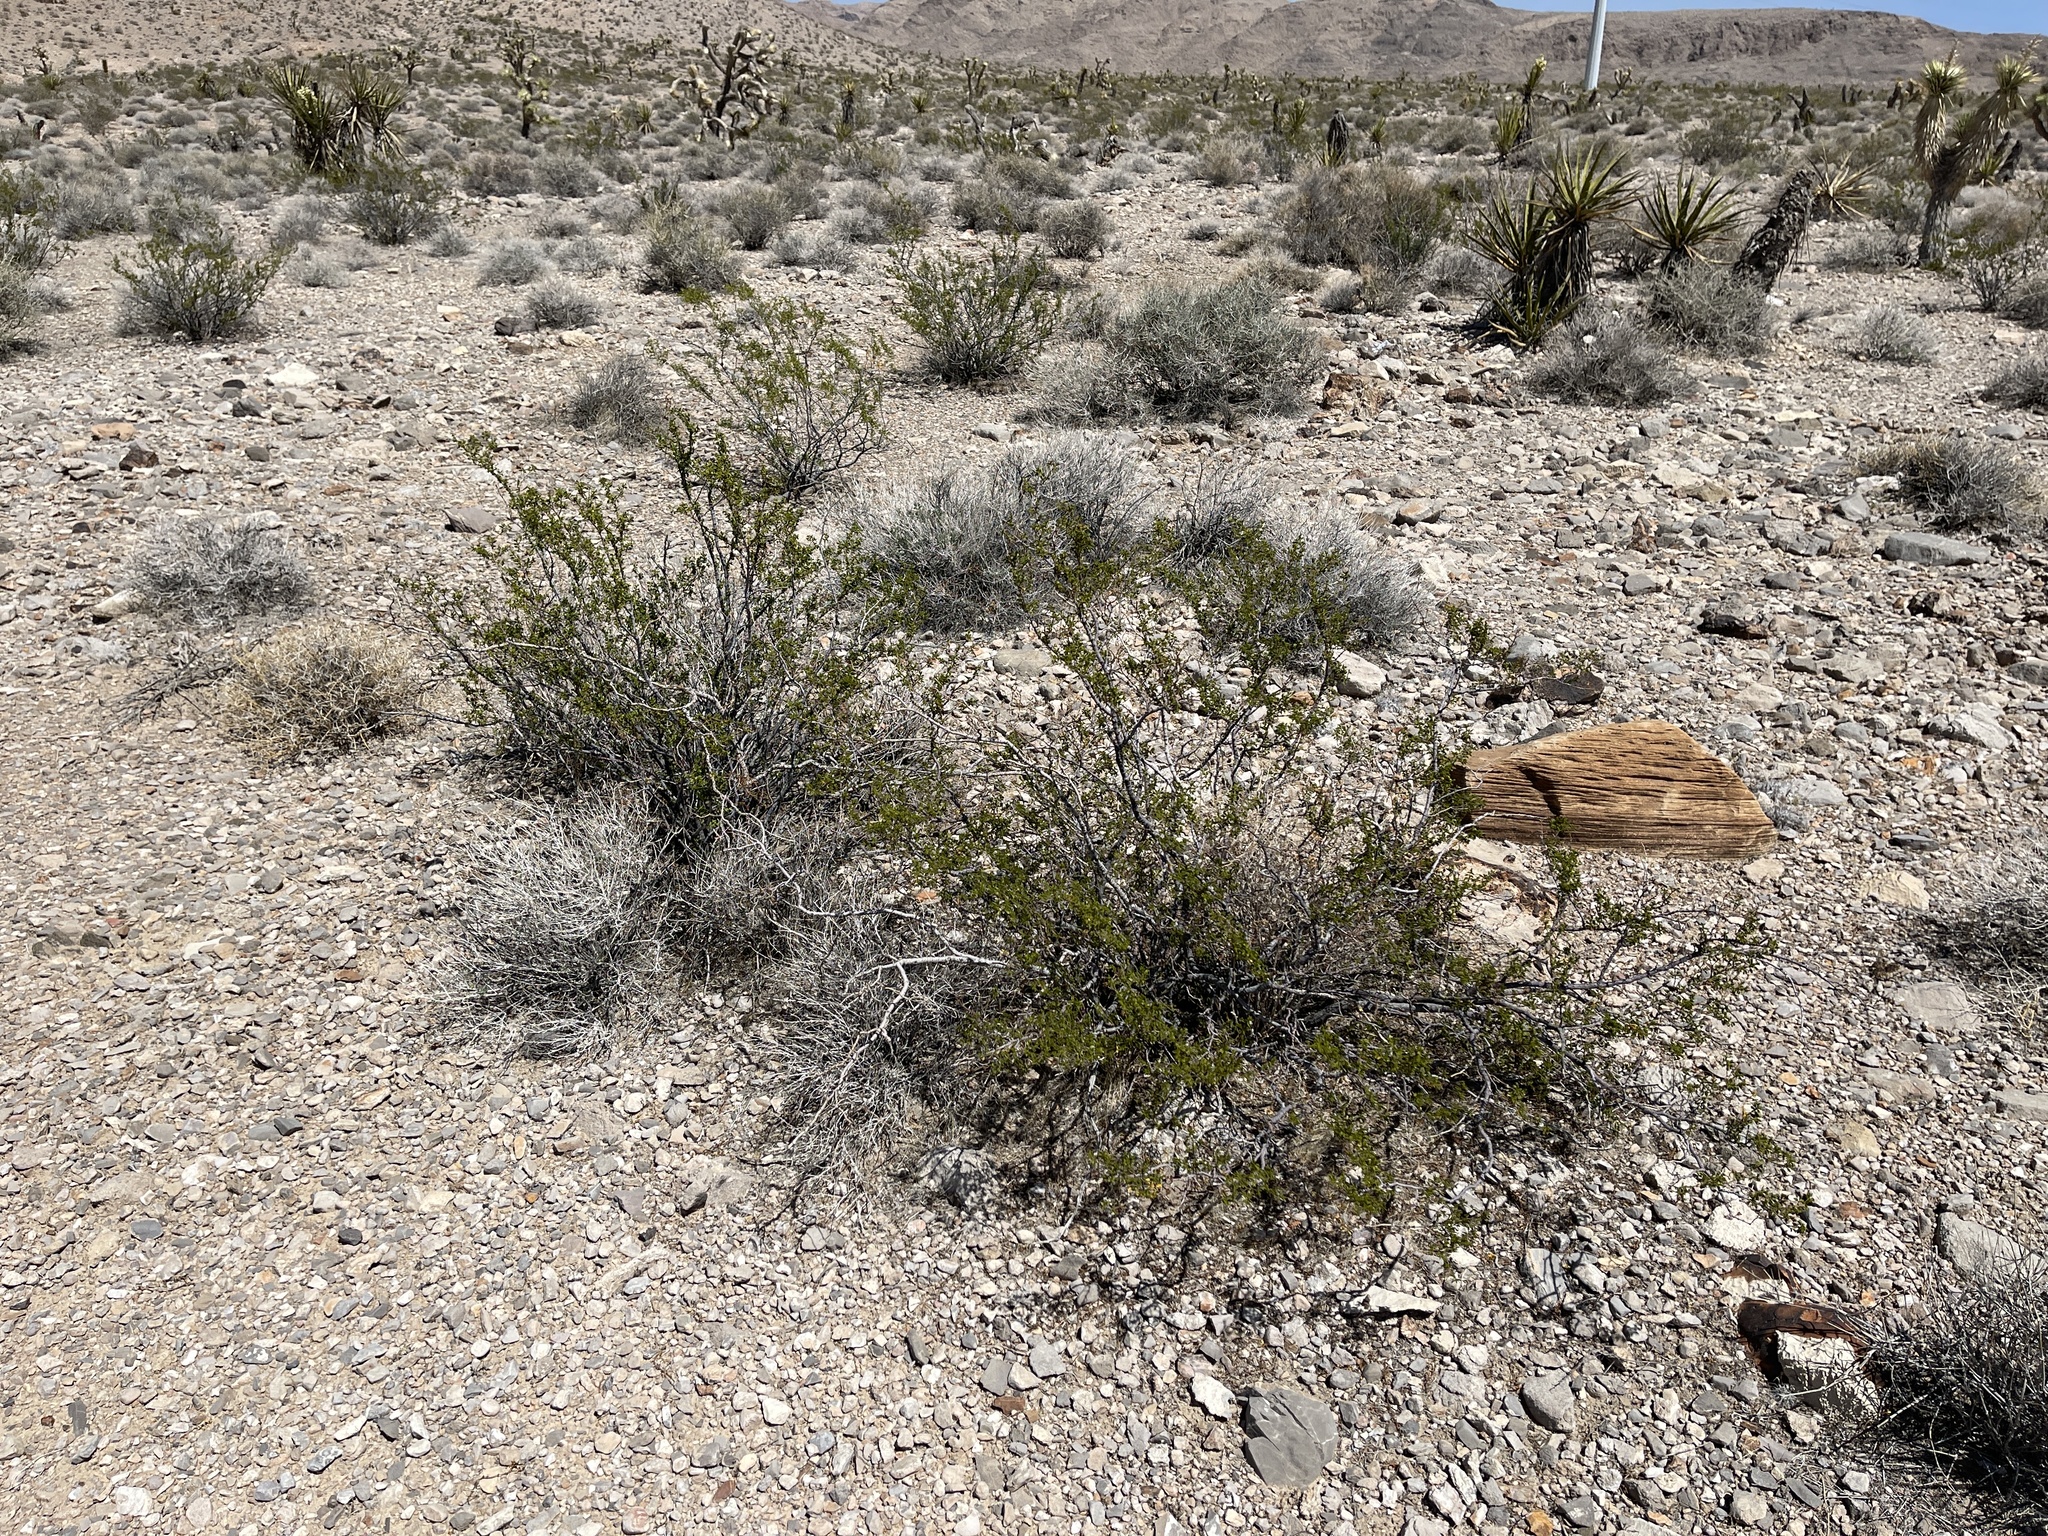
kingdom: Plantae
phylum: Tracheophyta
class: Magnoliopsida
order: Zygophyllales
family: Zygophyllaceae
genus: Larrea
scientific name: Larrea tridentata
